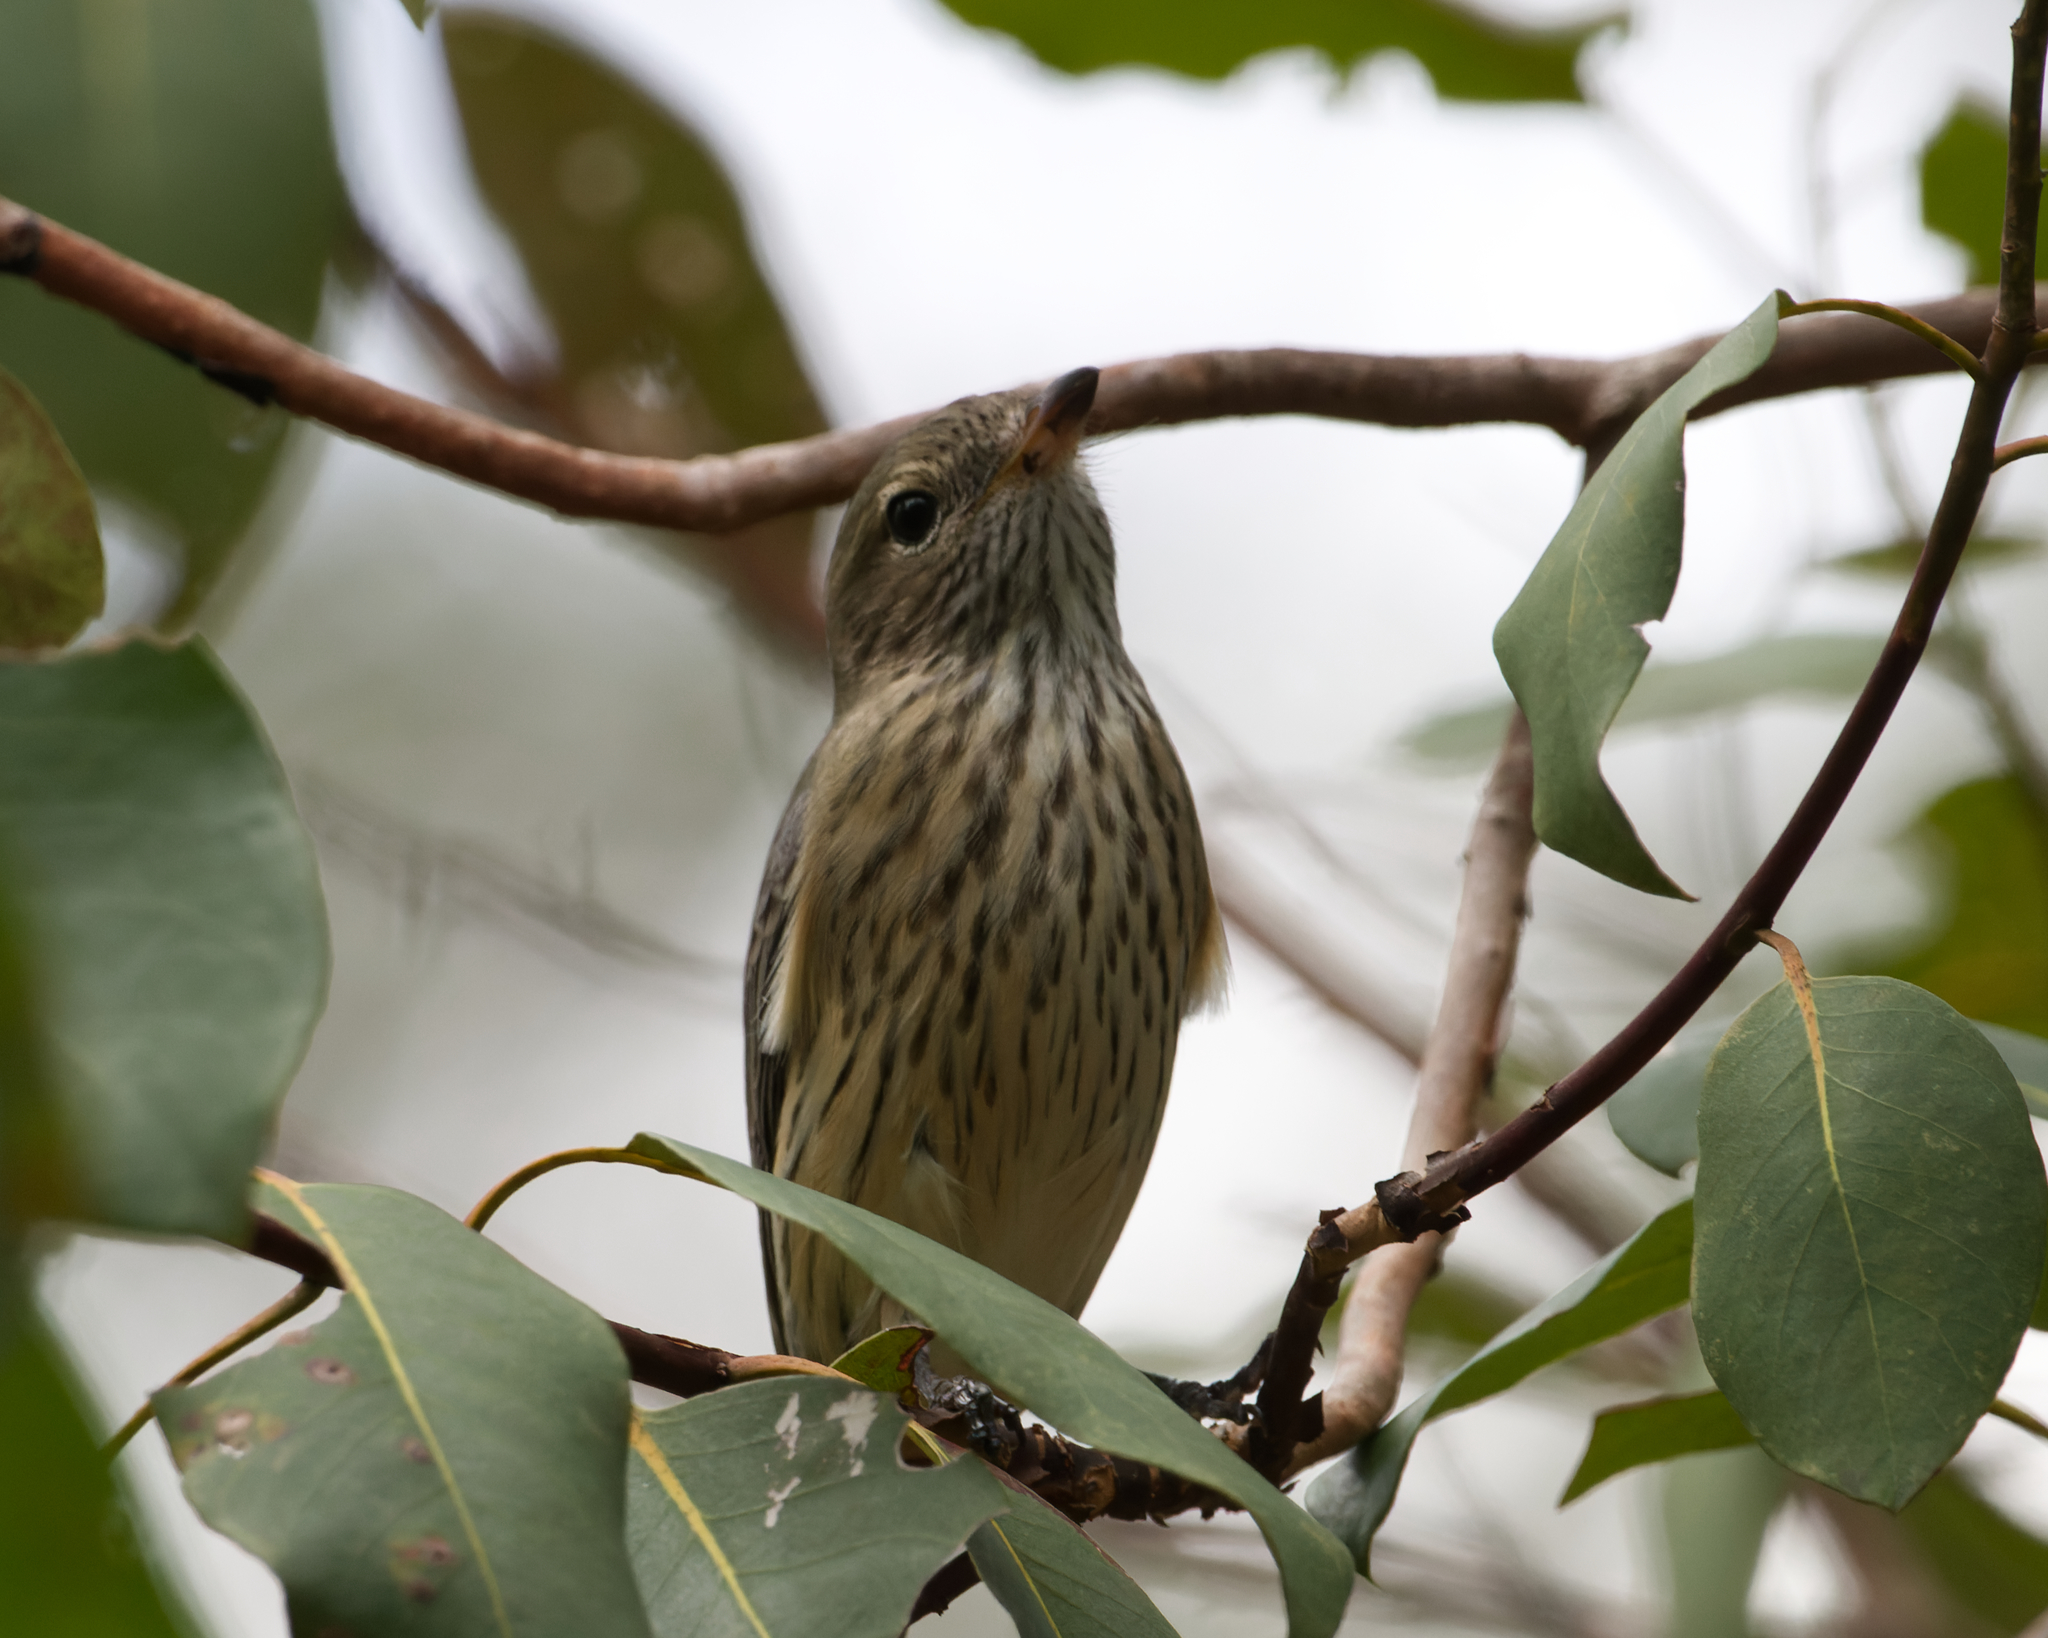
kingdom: Animalia
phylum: Chordata
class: Aves
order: Passeriformes
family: Pachycephalidae
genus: Pachycephala
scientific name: Pachycephala rufiventris
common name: Rufous whistler
